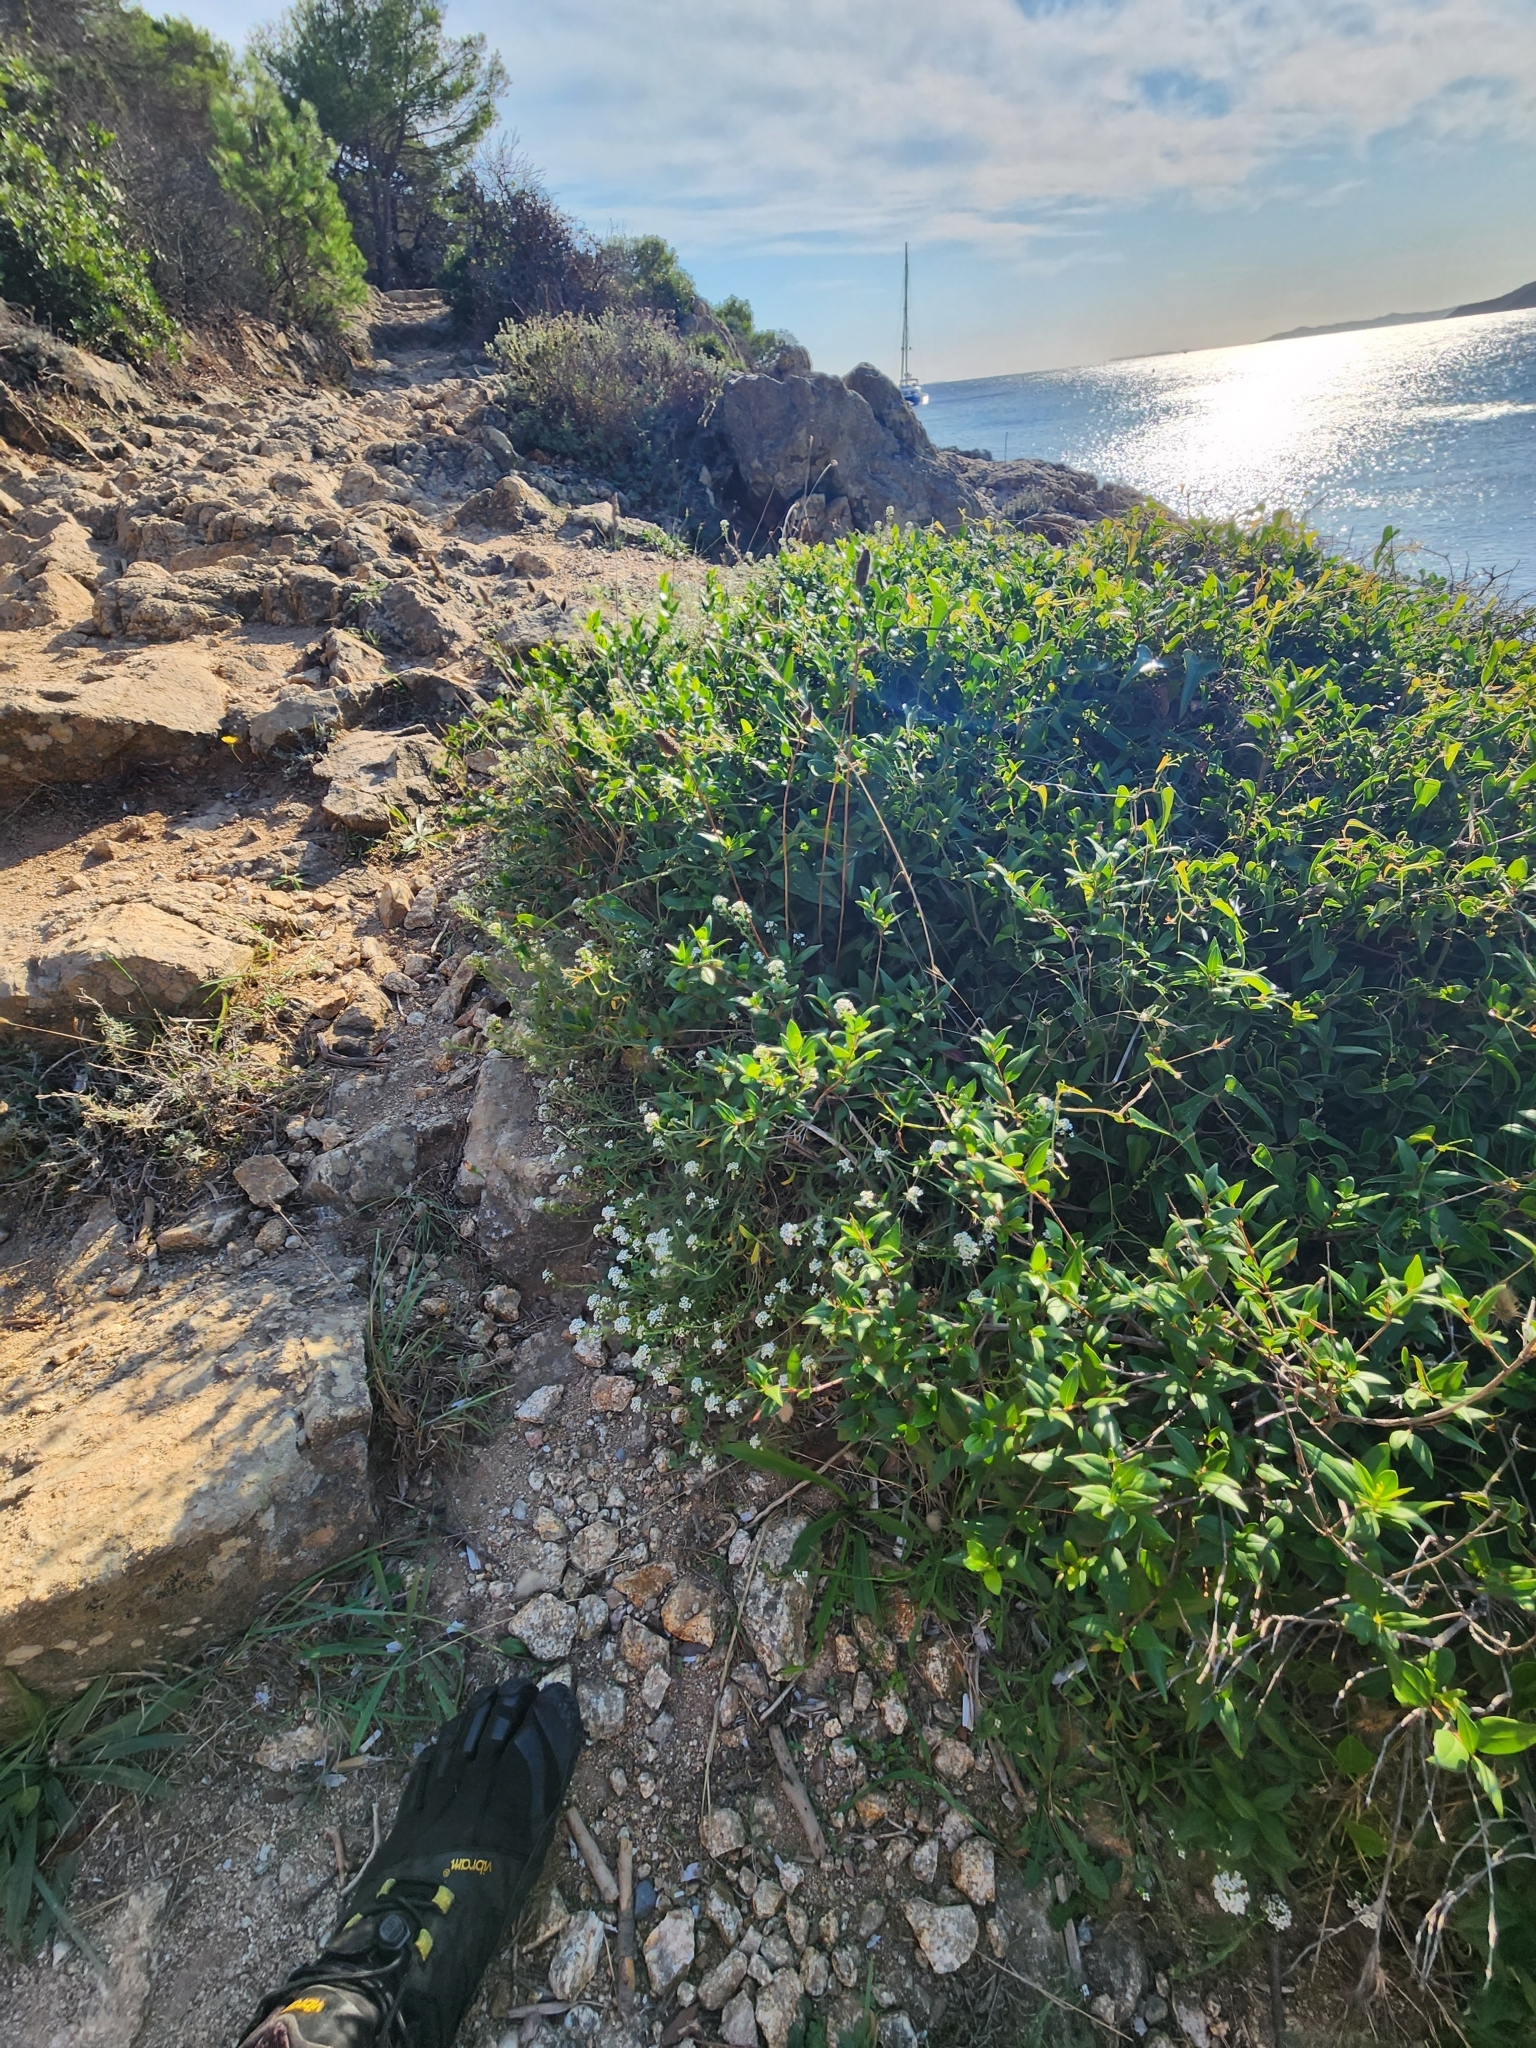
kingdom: Plantae
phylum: Tracheophyta
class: Magnoliopsida
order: Brassicales
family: Brassicaceae
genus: Lobularia
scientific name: Lobularia maritima
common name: Sweet alison
